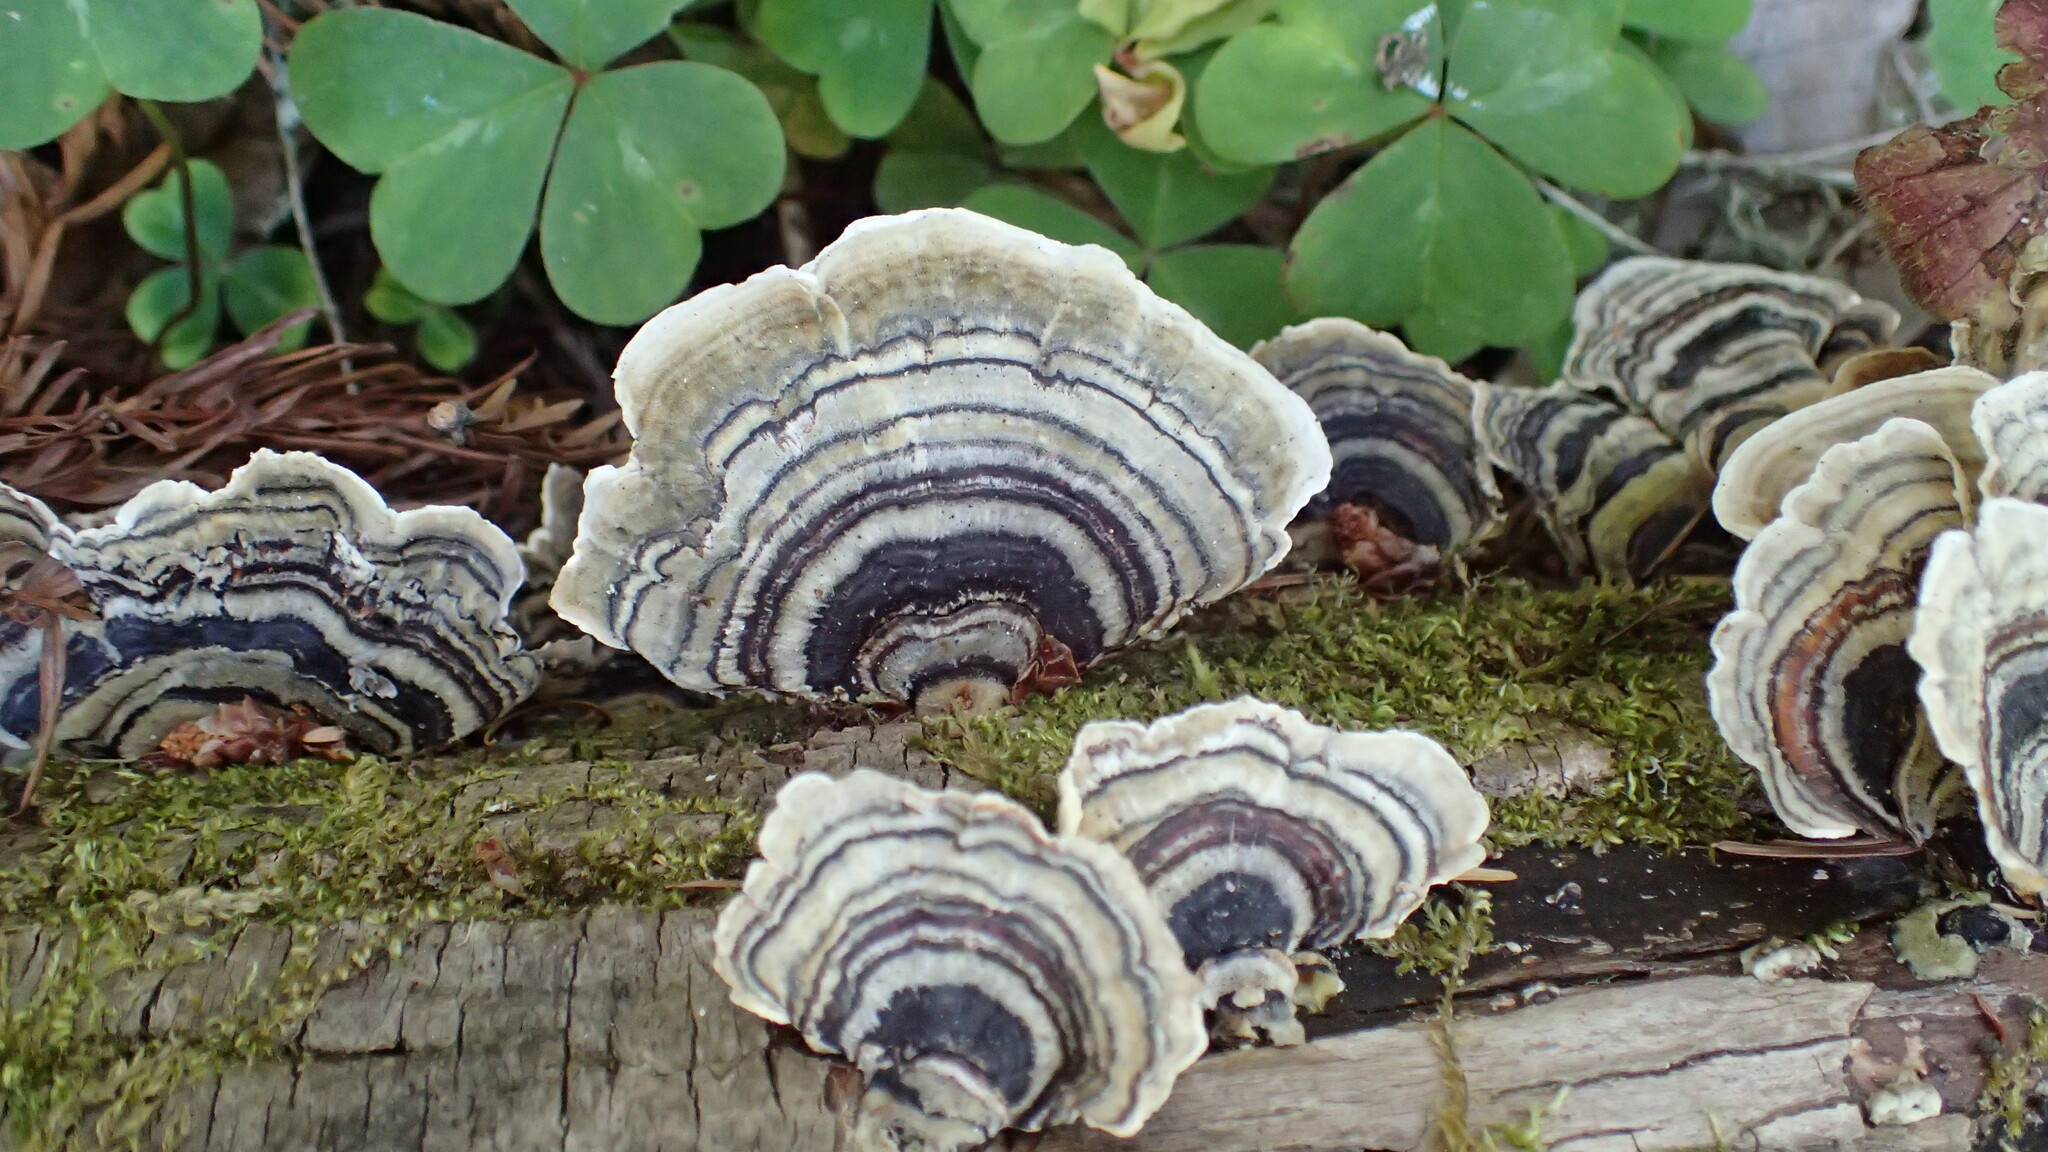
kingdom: Fungi
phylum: Basidiomycota
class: Agaricomycetes
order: Polyporales
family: Polyporaceae
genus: Trametes
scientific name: Trametes versicolor
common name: Turkeytail
